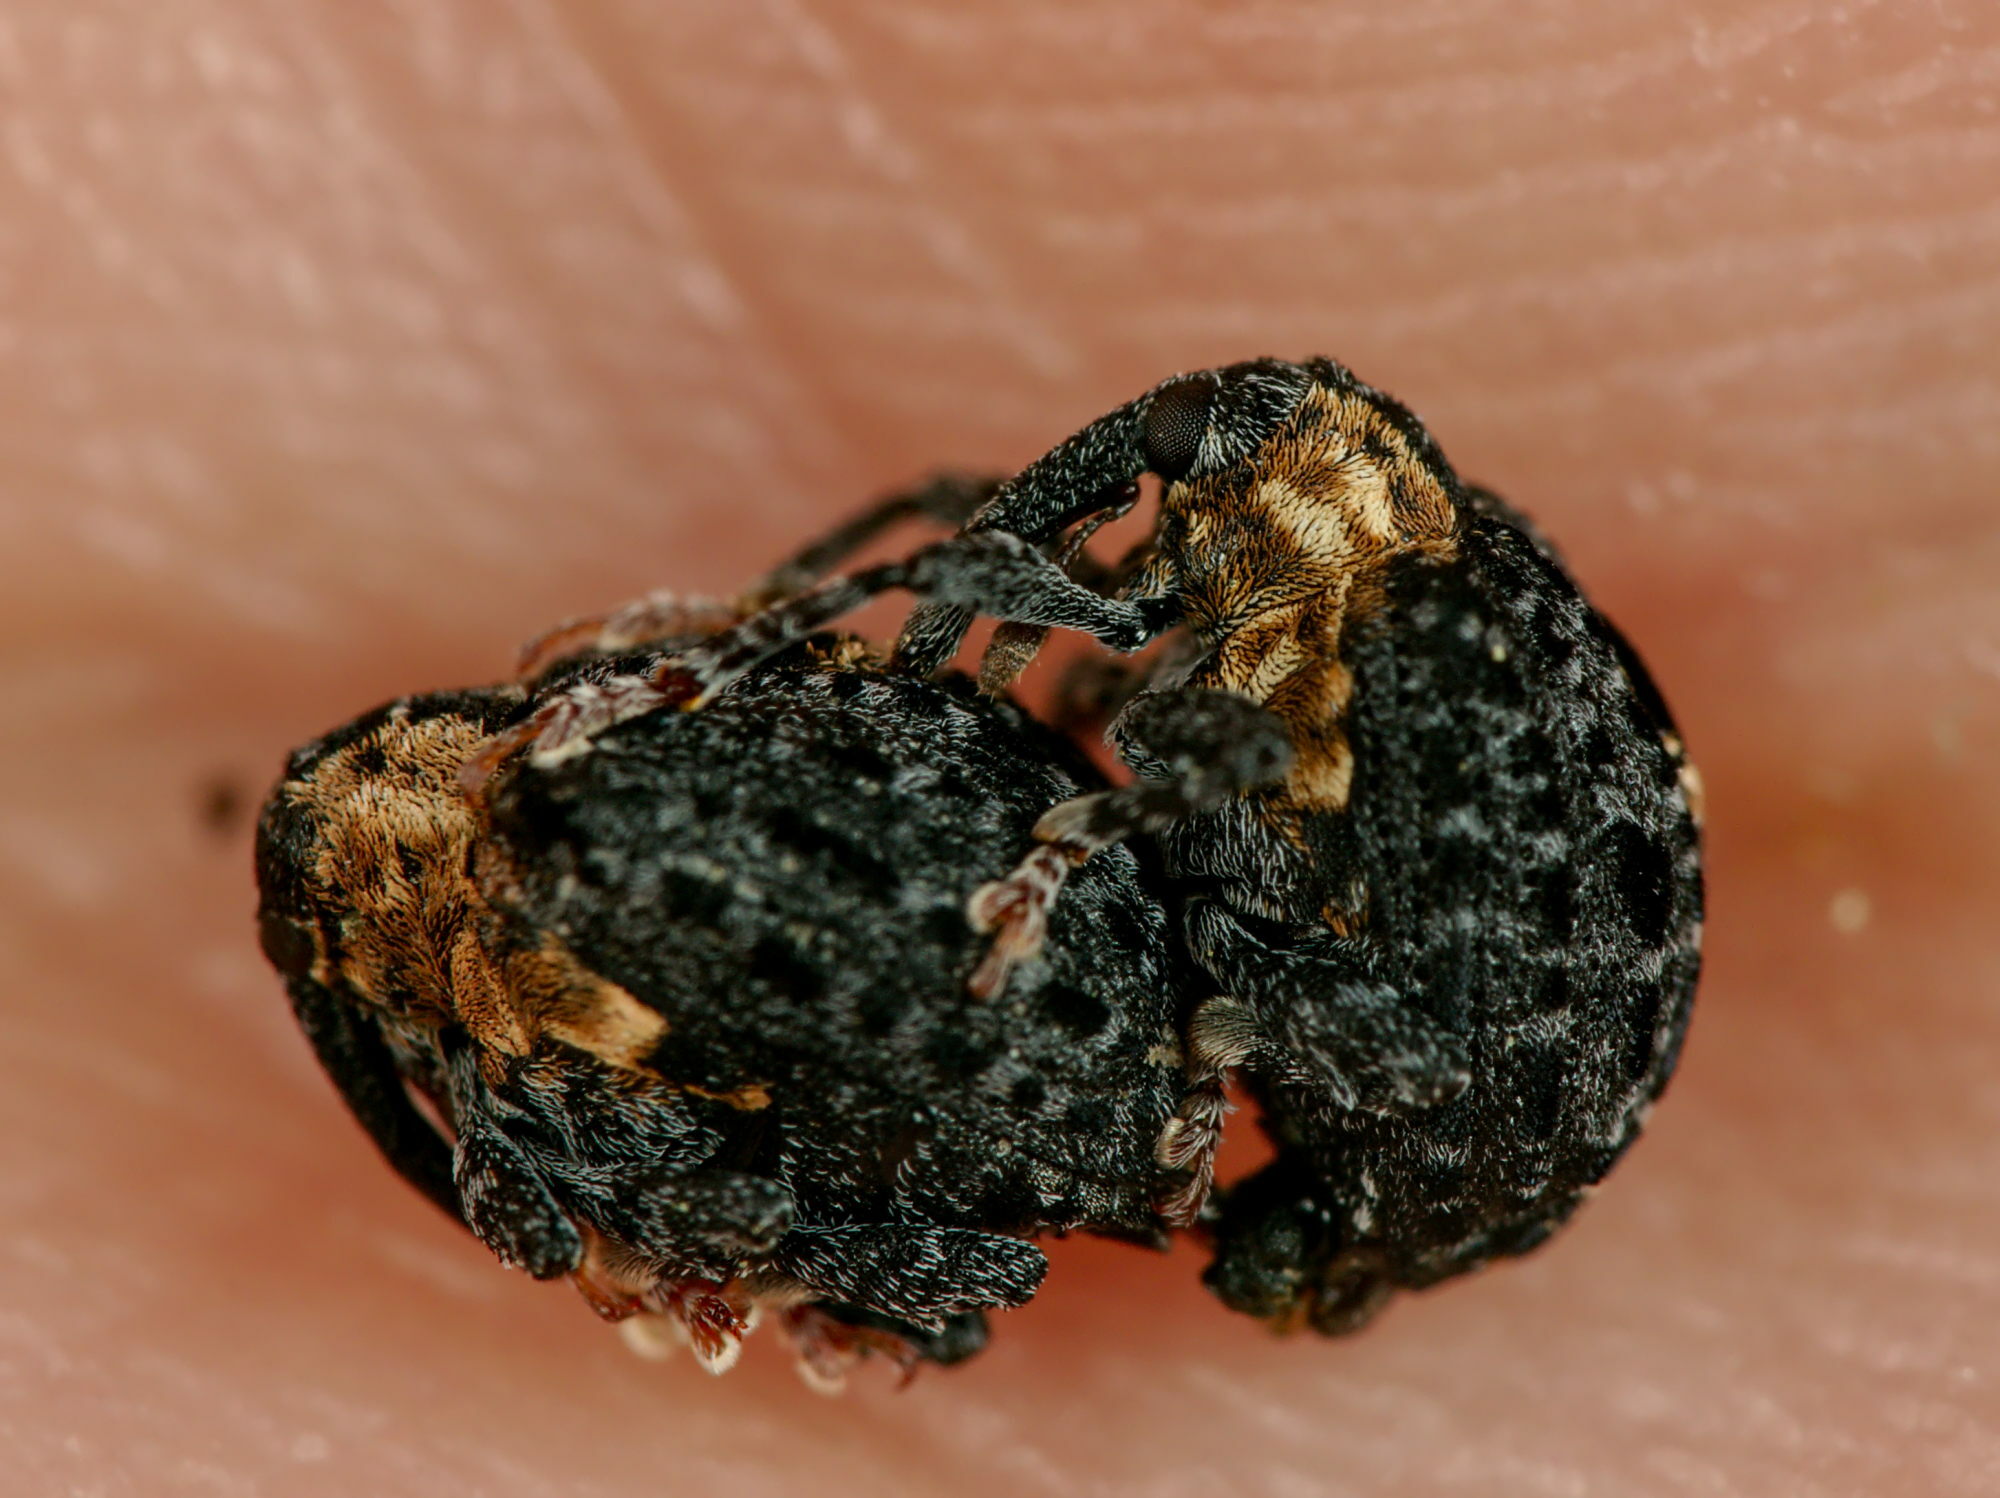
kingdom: Animalia
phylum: Arthropoda
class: Insecta
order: Coleoptera
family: Curculionidae
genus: Cionus
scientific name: Cionus tuberculosus
